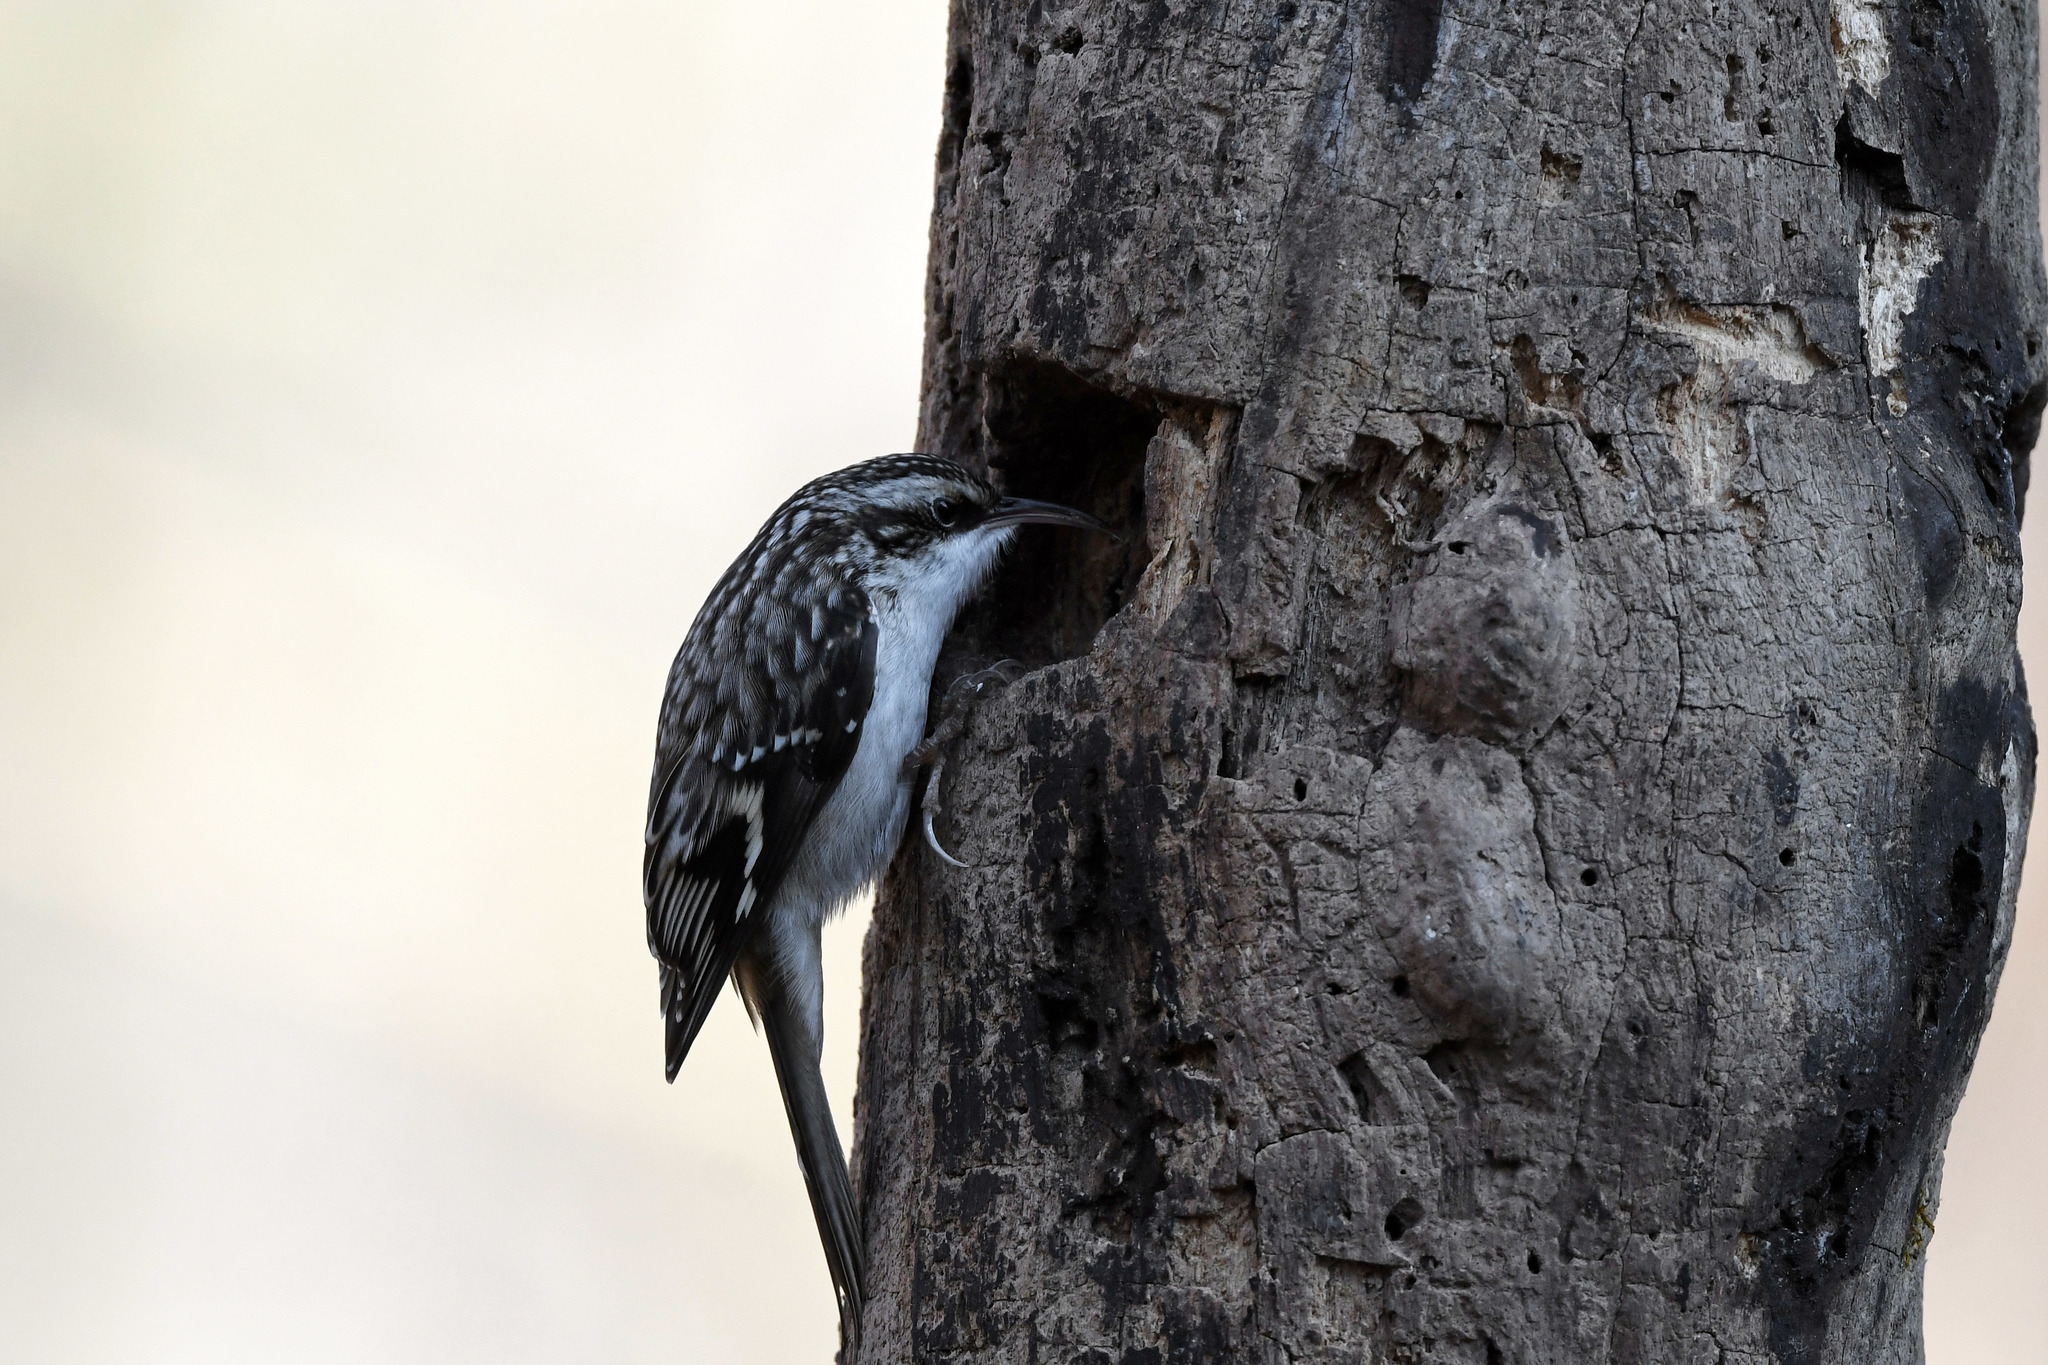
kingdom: Animalia
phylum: Chordata
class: Aves
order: Passeriformes
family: Certhiidae
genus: Certhia
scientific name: Certhia americana
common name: Brown creeper
